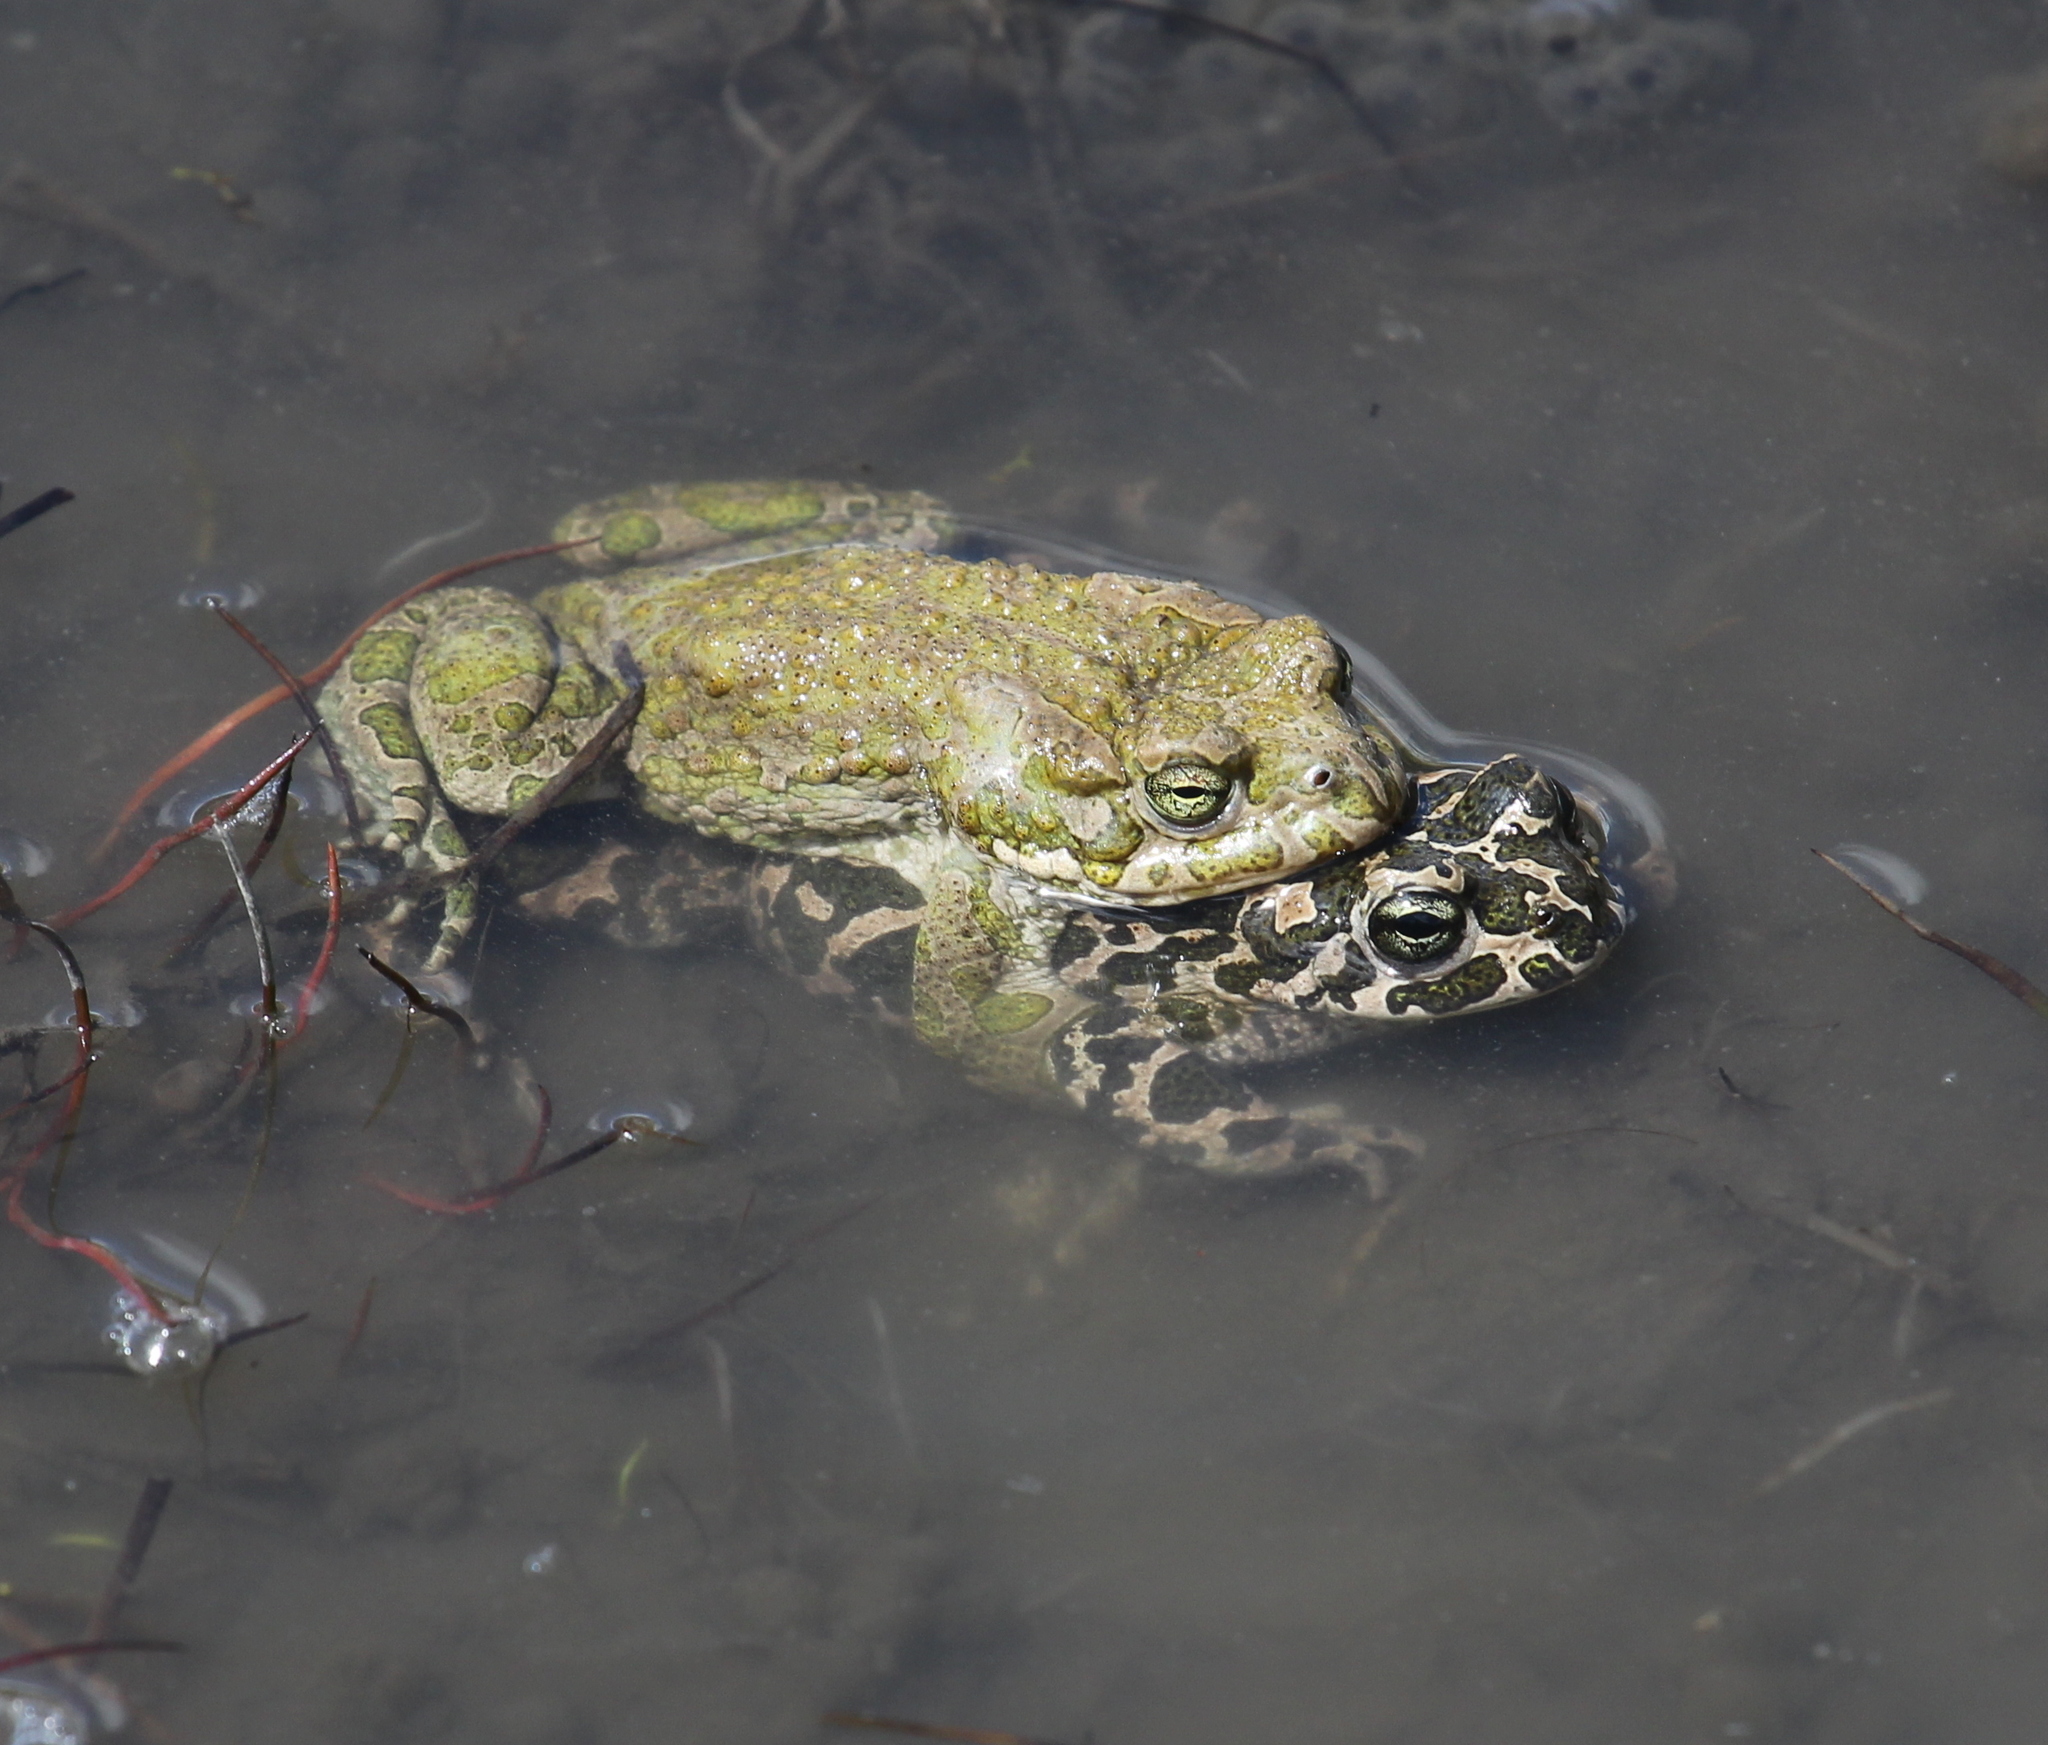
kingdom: Animalia
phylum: Chordata
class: Amphibia
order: Anura
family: Bufonidae
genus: Bufotes
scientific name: Bufotes viridis
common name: European green toad
